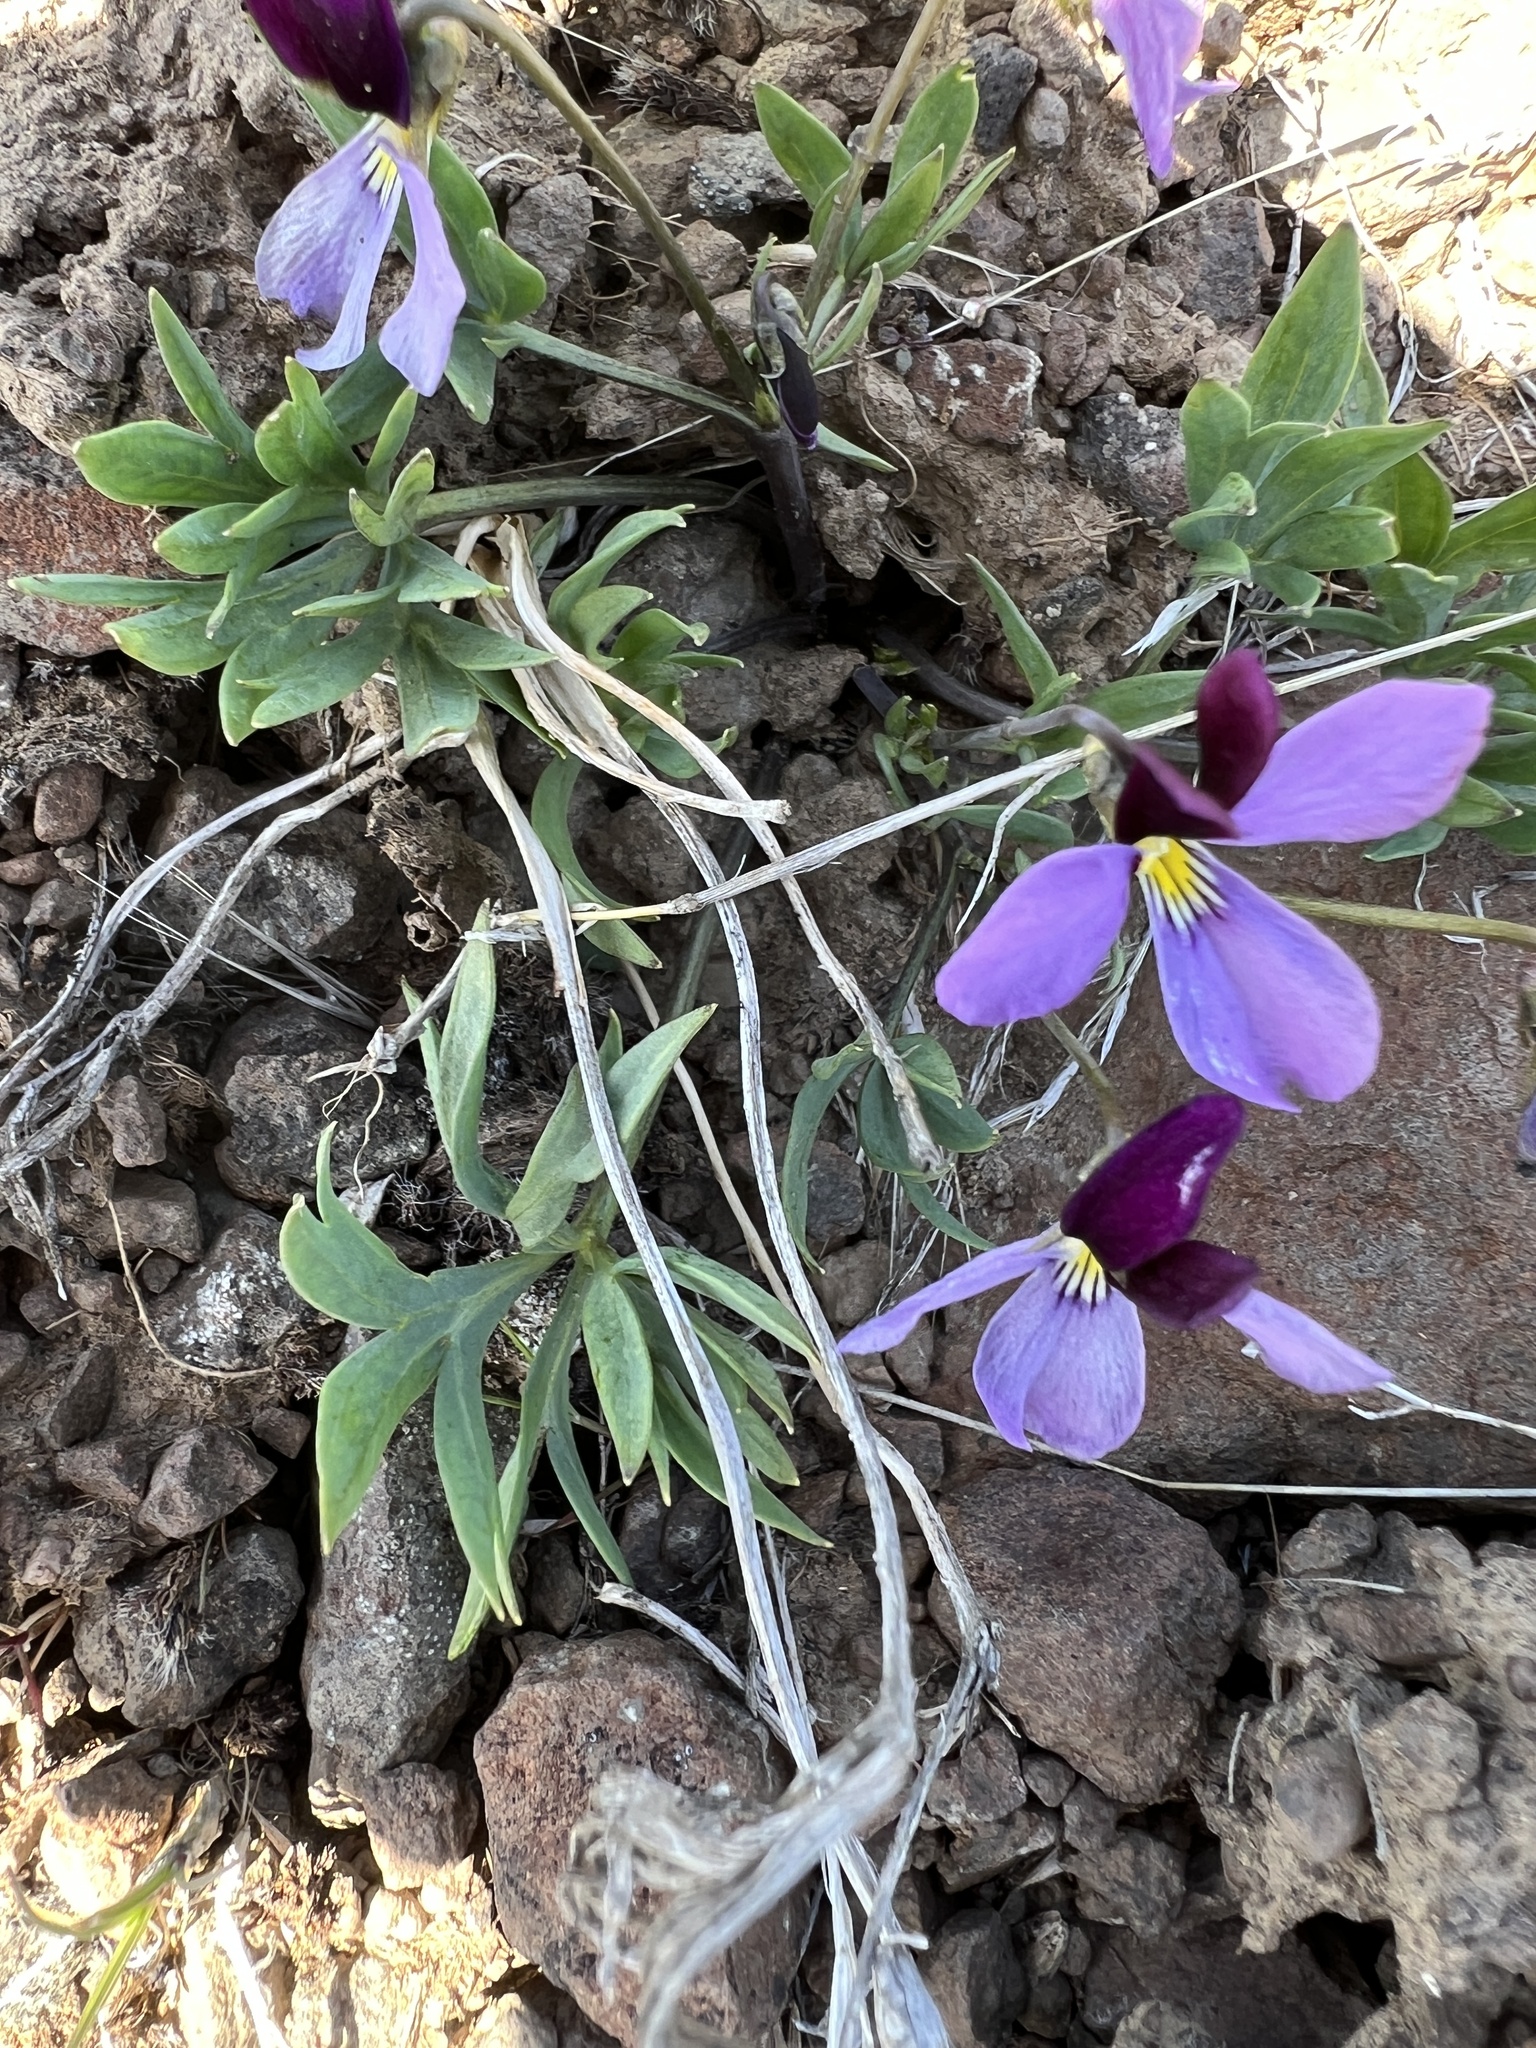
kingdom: Plantae
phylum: Tracheophyta
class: Magnoliopsida
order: Malpighiales
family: Violaceae
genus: Viola
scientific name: Viola trinervata
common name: Sagebrush violet
